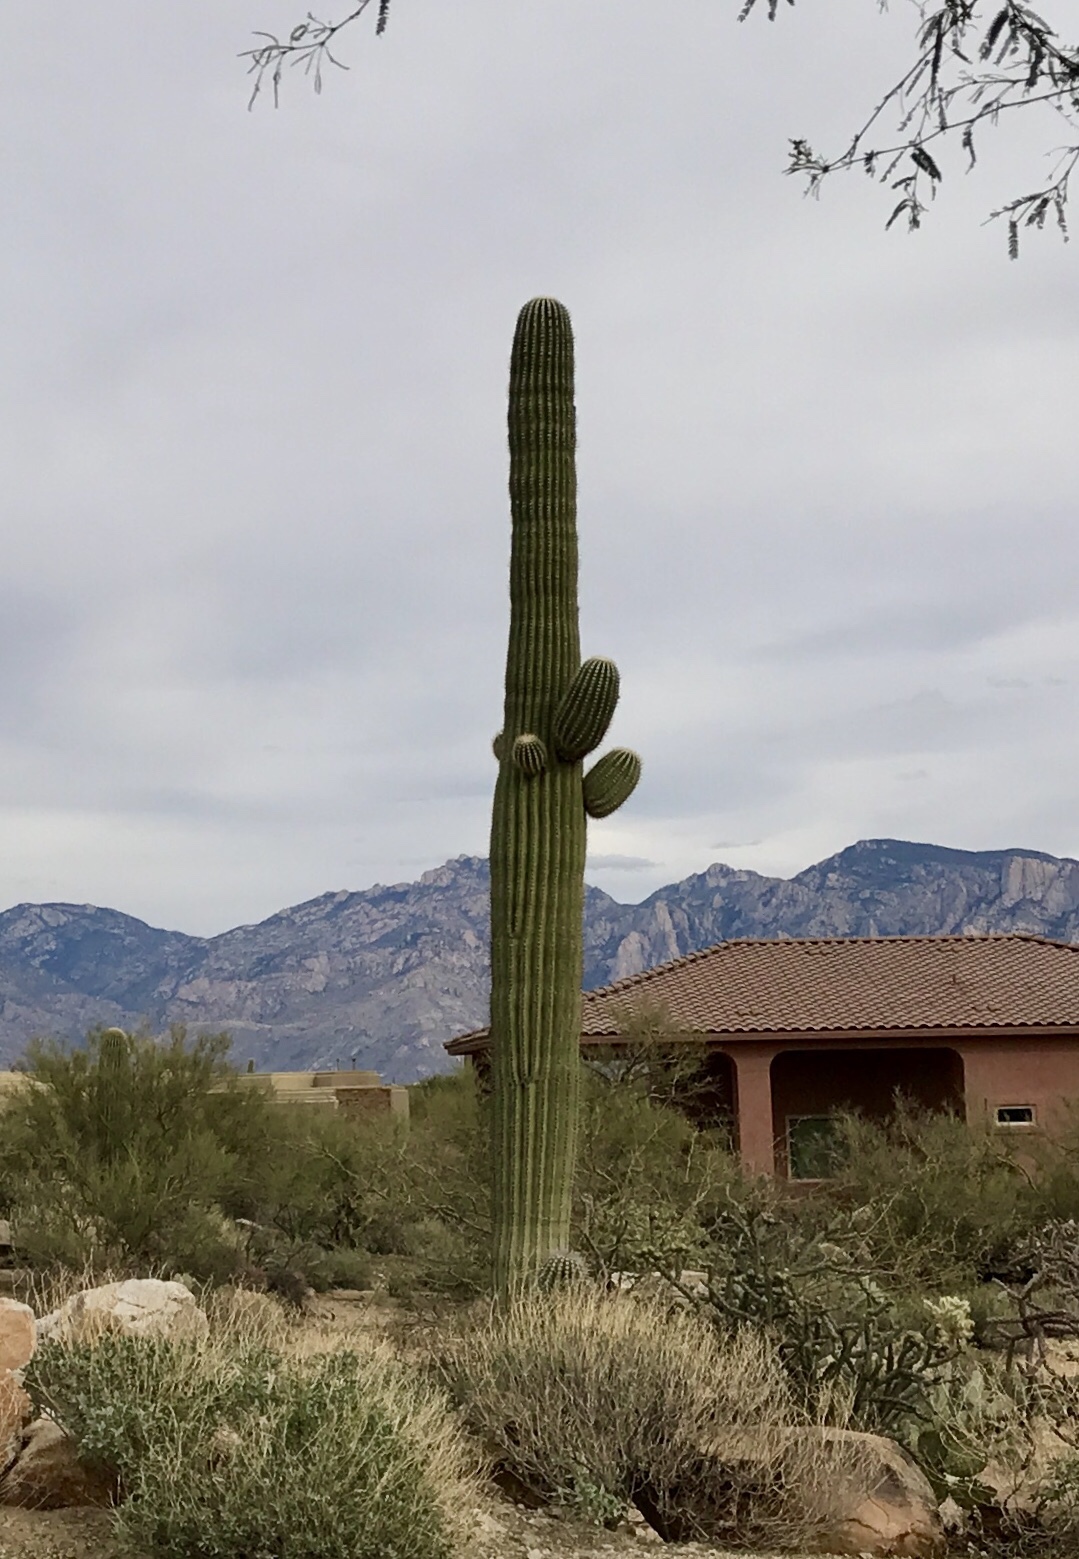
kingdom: Plantae
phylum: Tracheophyta
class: Magnoliopsida
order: Caryophyllales
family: Cactaceae
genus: Carnegiea
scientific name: Carnegiea gigantea
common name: Saguaro
